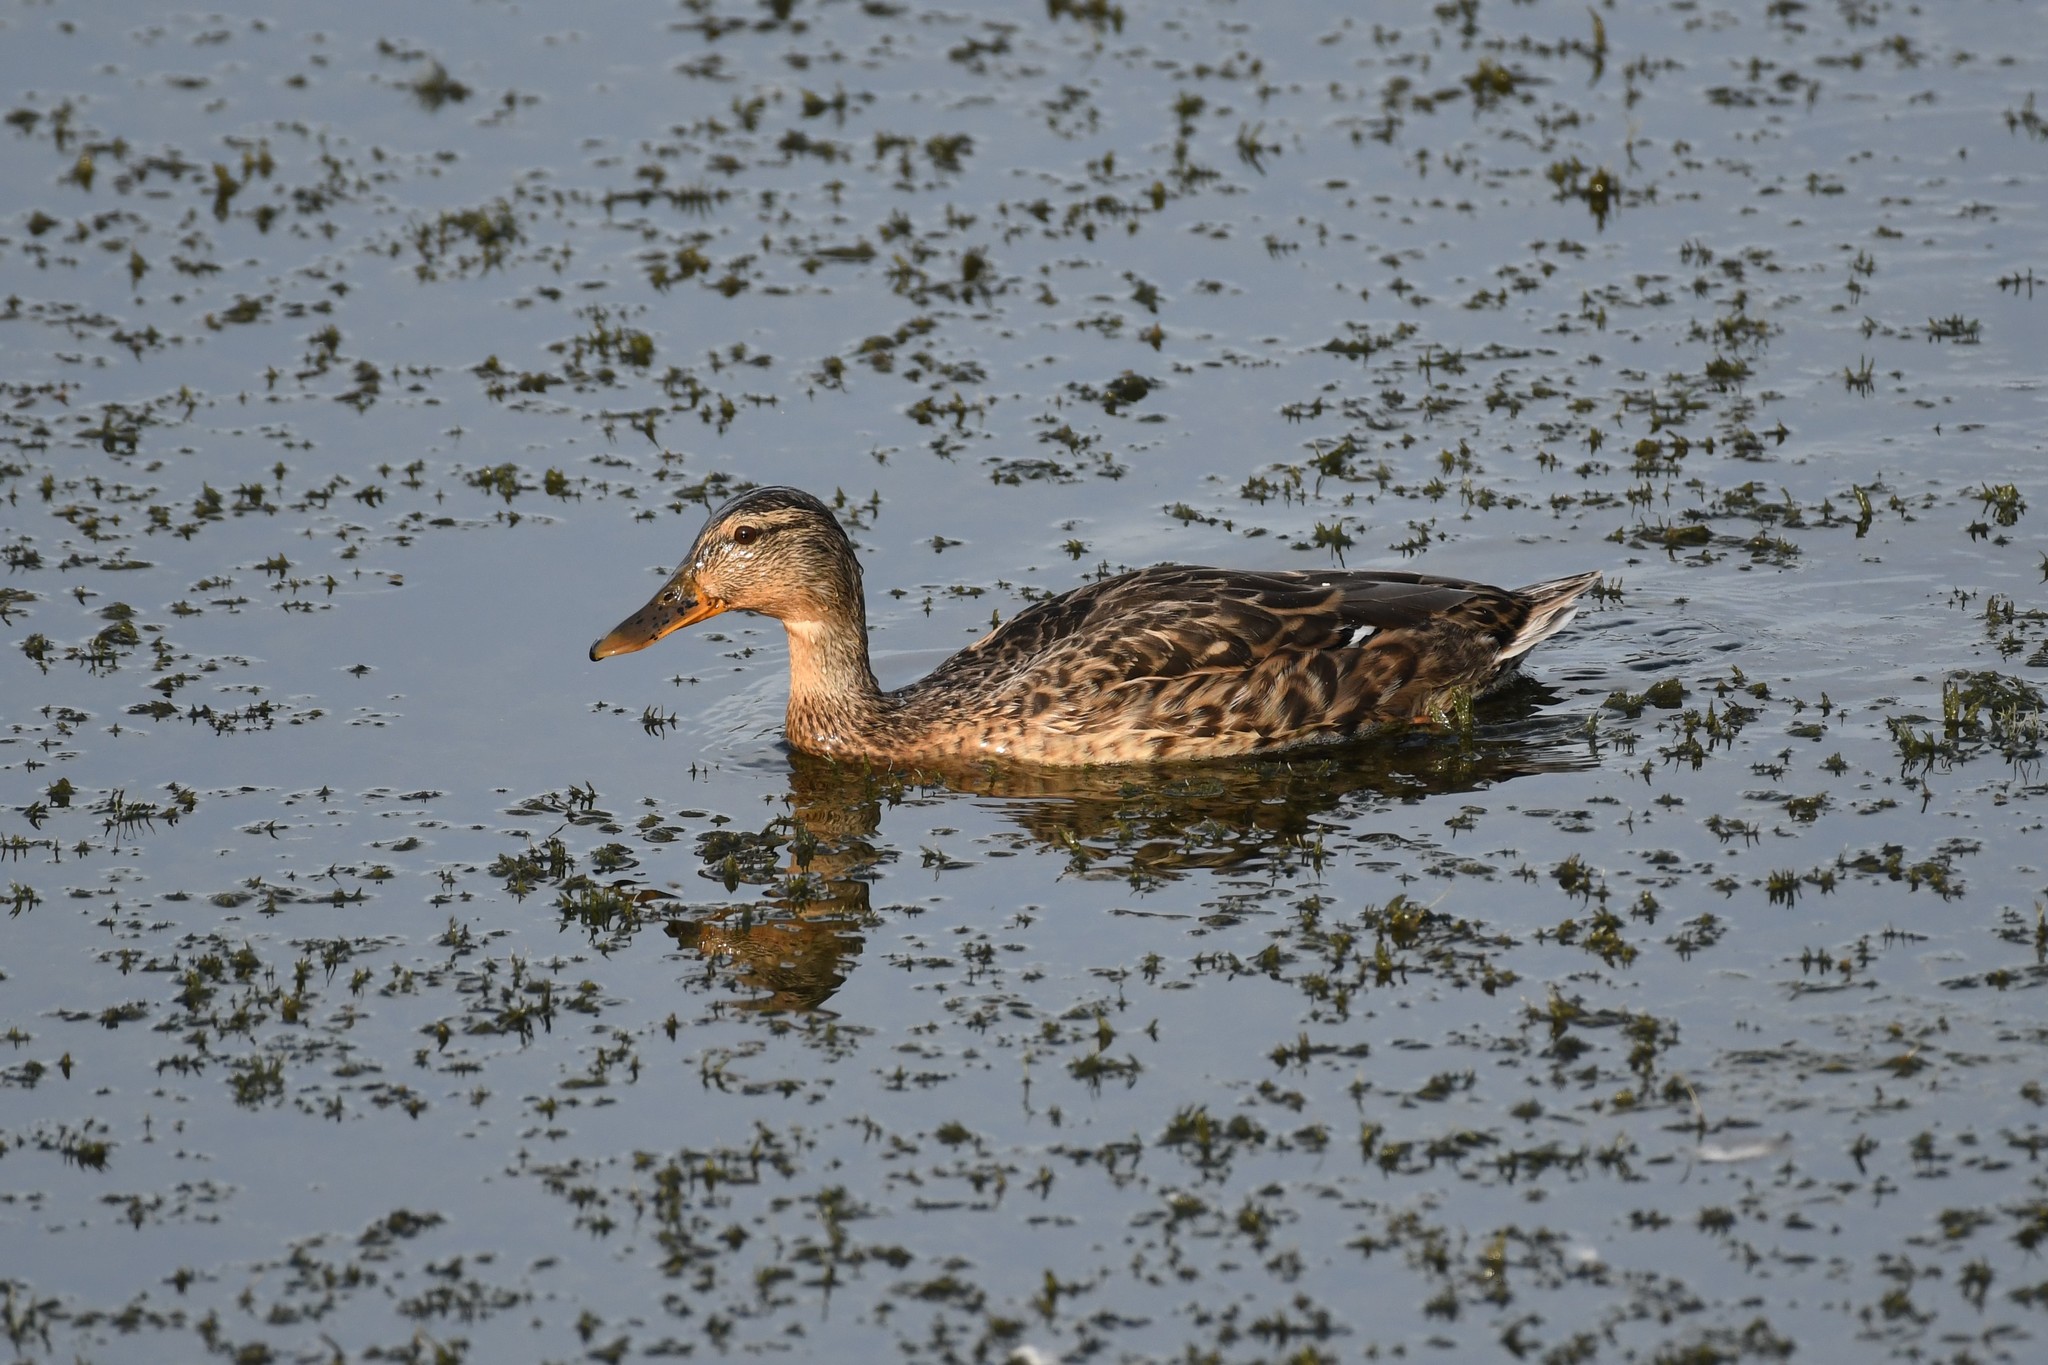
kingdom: Animalia
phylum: Chordata
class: Aves
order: Anseriformes
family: Anatidae
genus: Anas
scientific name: Anas platyrhynchos
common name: Mallard
